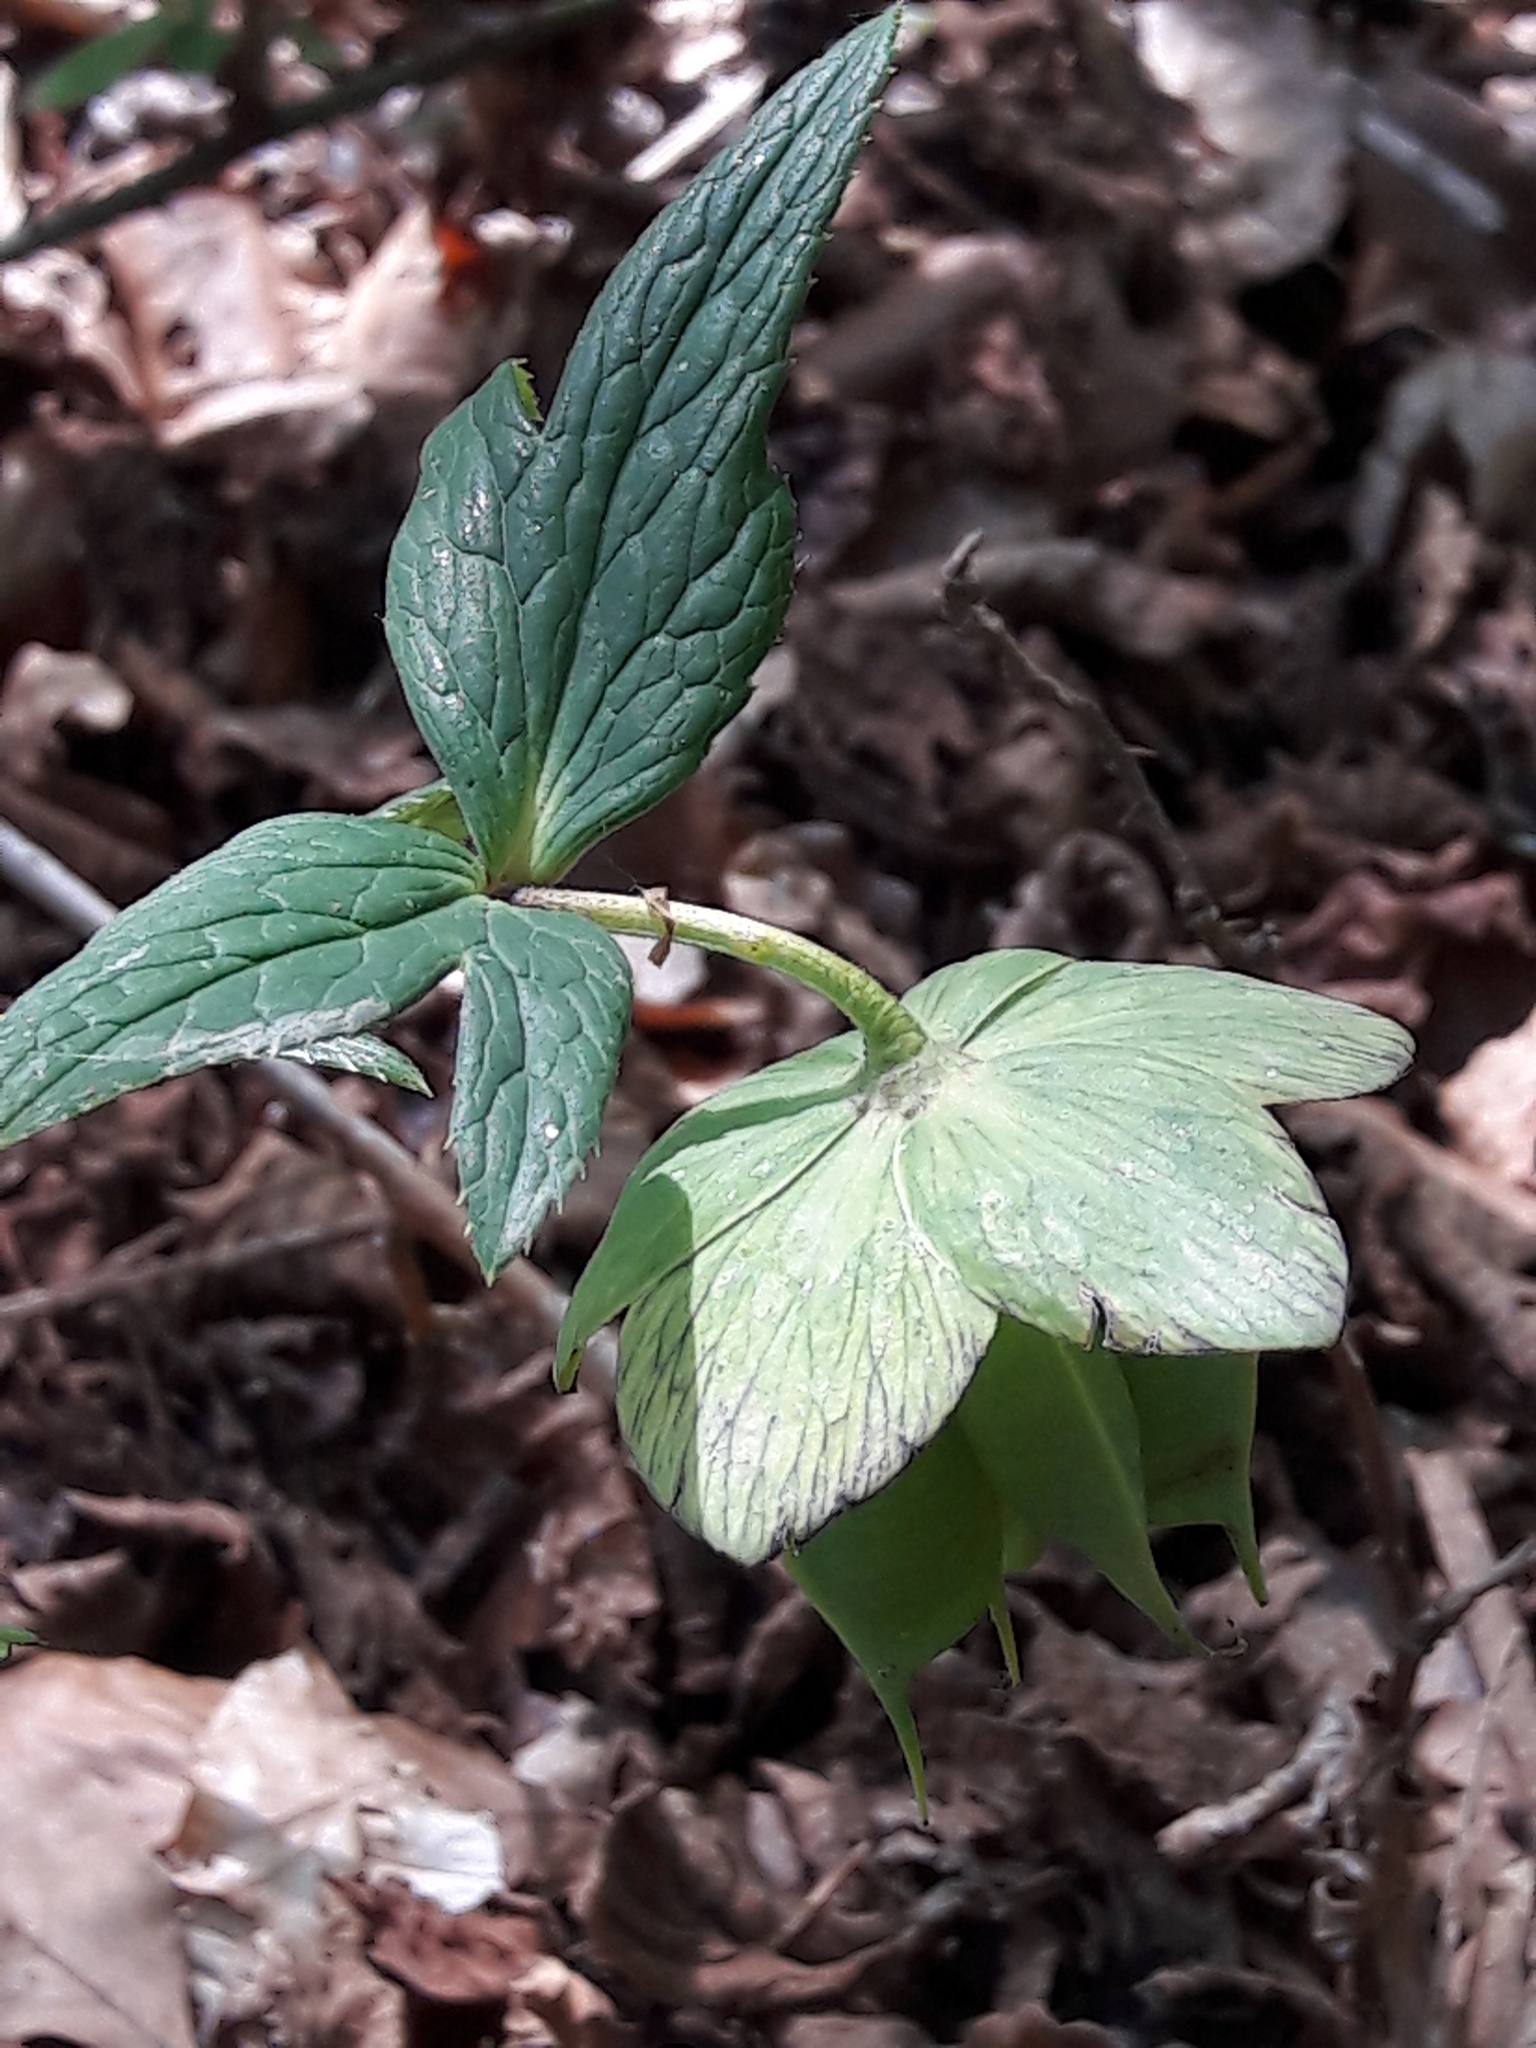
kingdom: Plantae
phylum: Tracheophyta
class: Magnoliopsida
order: Ranunculales
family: Ranunculaceae
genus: Helleborus
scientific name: Helleborus viridis
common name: Green hellebore
